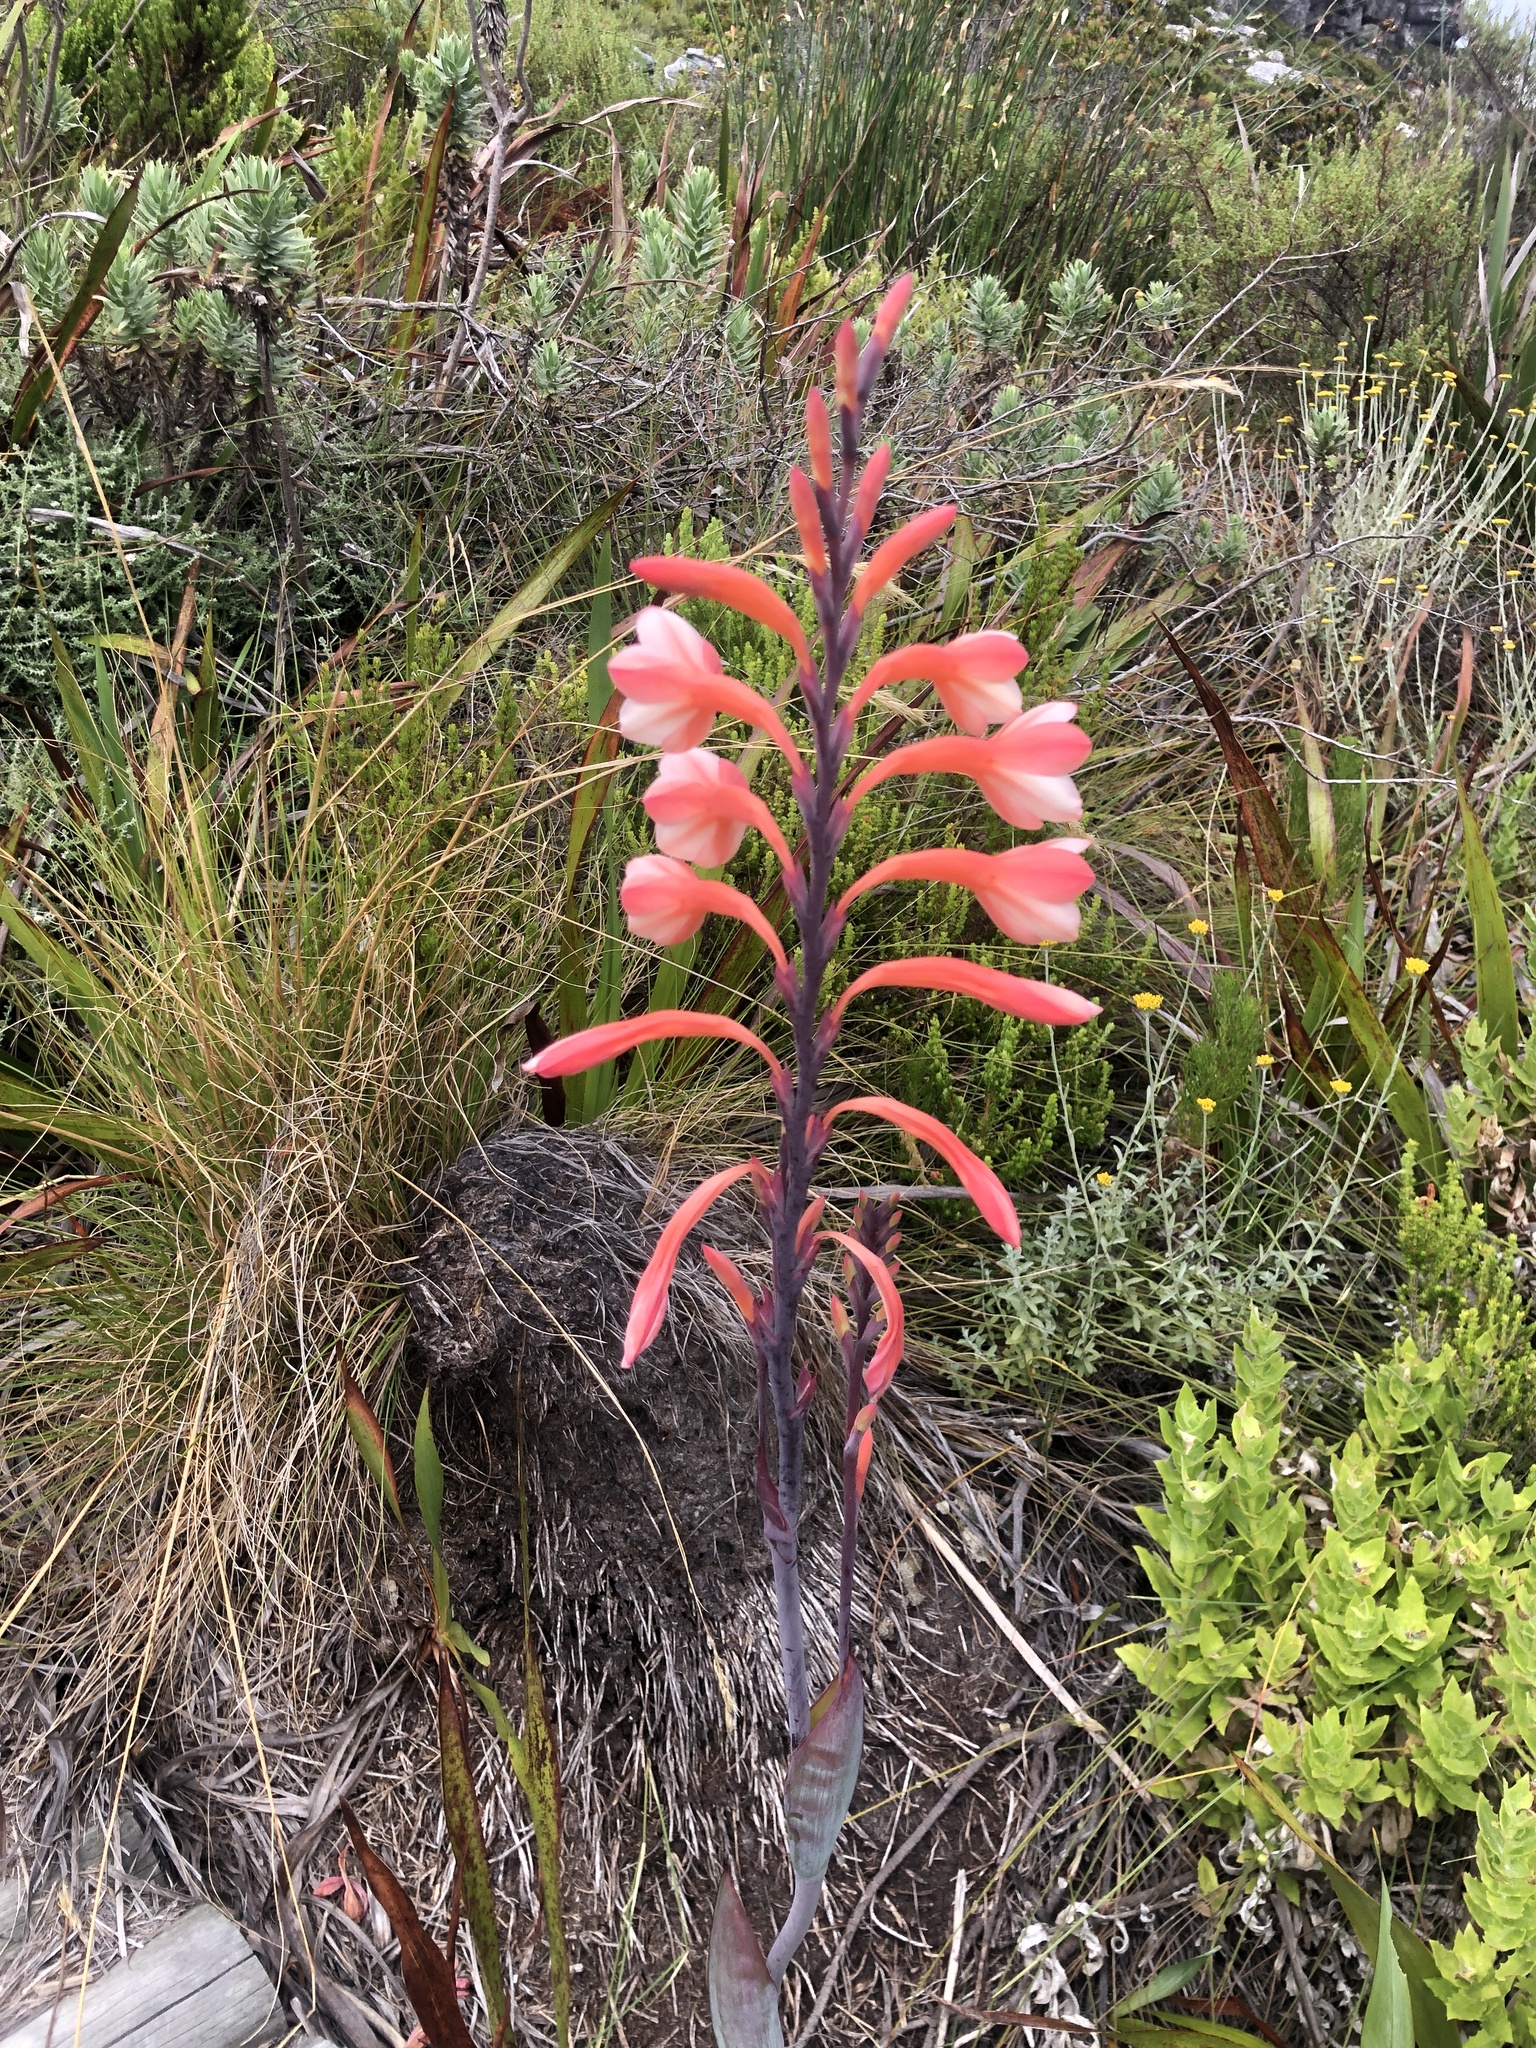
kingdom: Plantae
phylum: Tracheophyta
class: Liliopsida
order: Asparagales
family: Iridaceae
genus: Watsonia
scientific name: Watsonia tabularis
